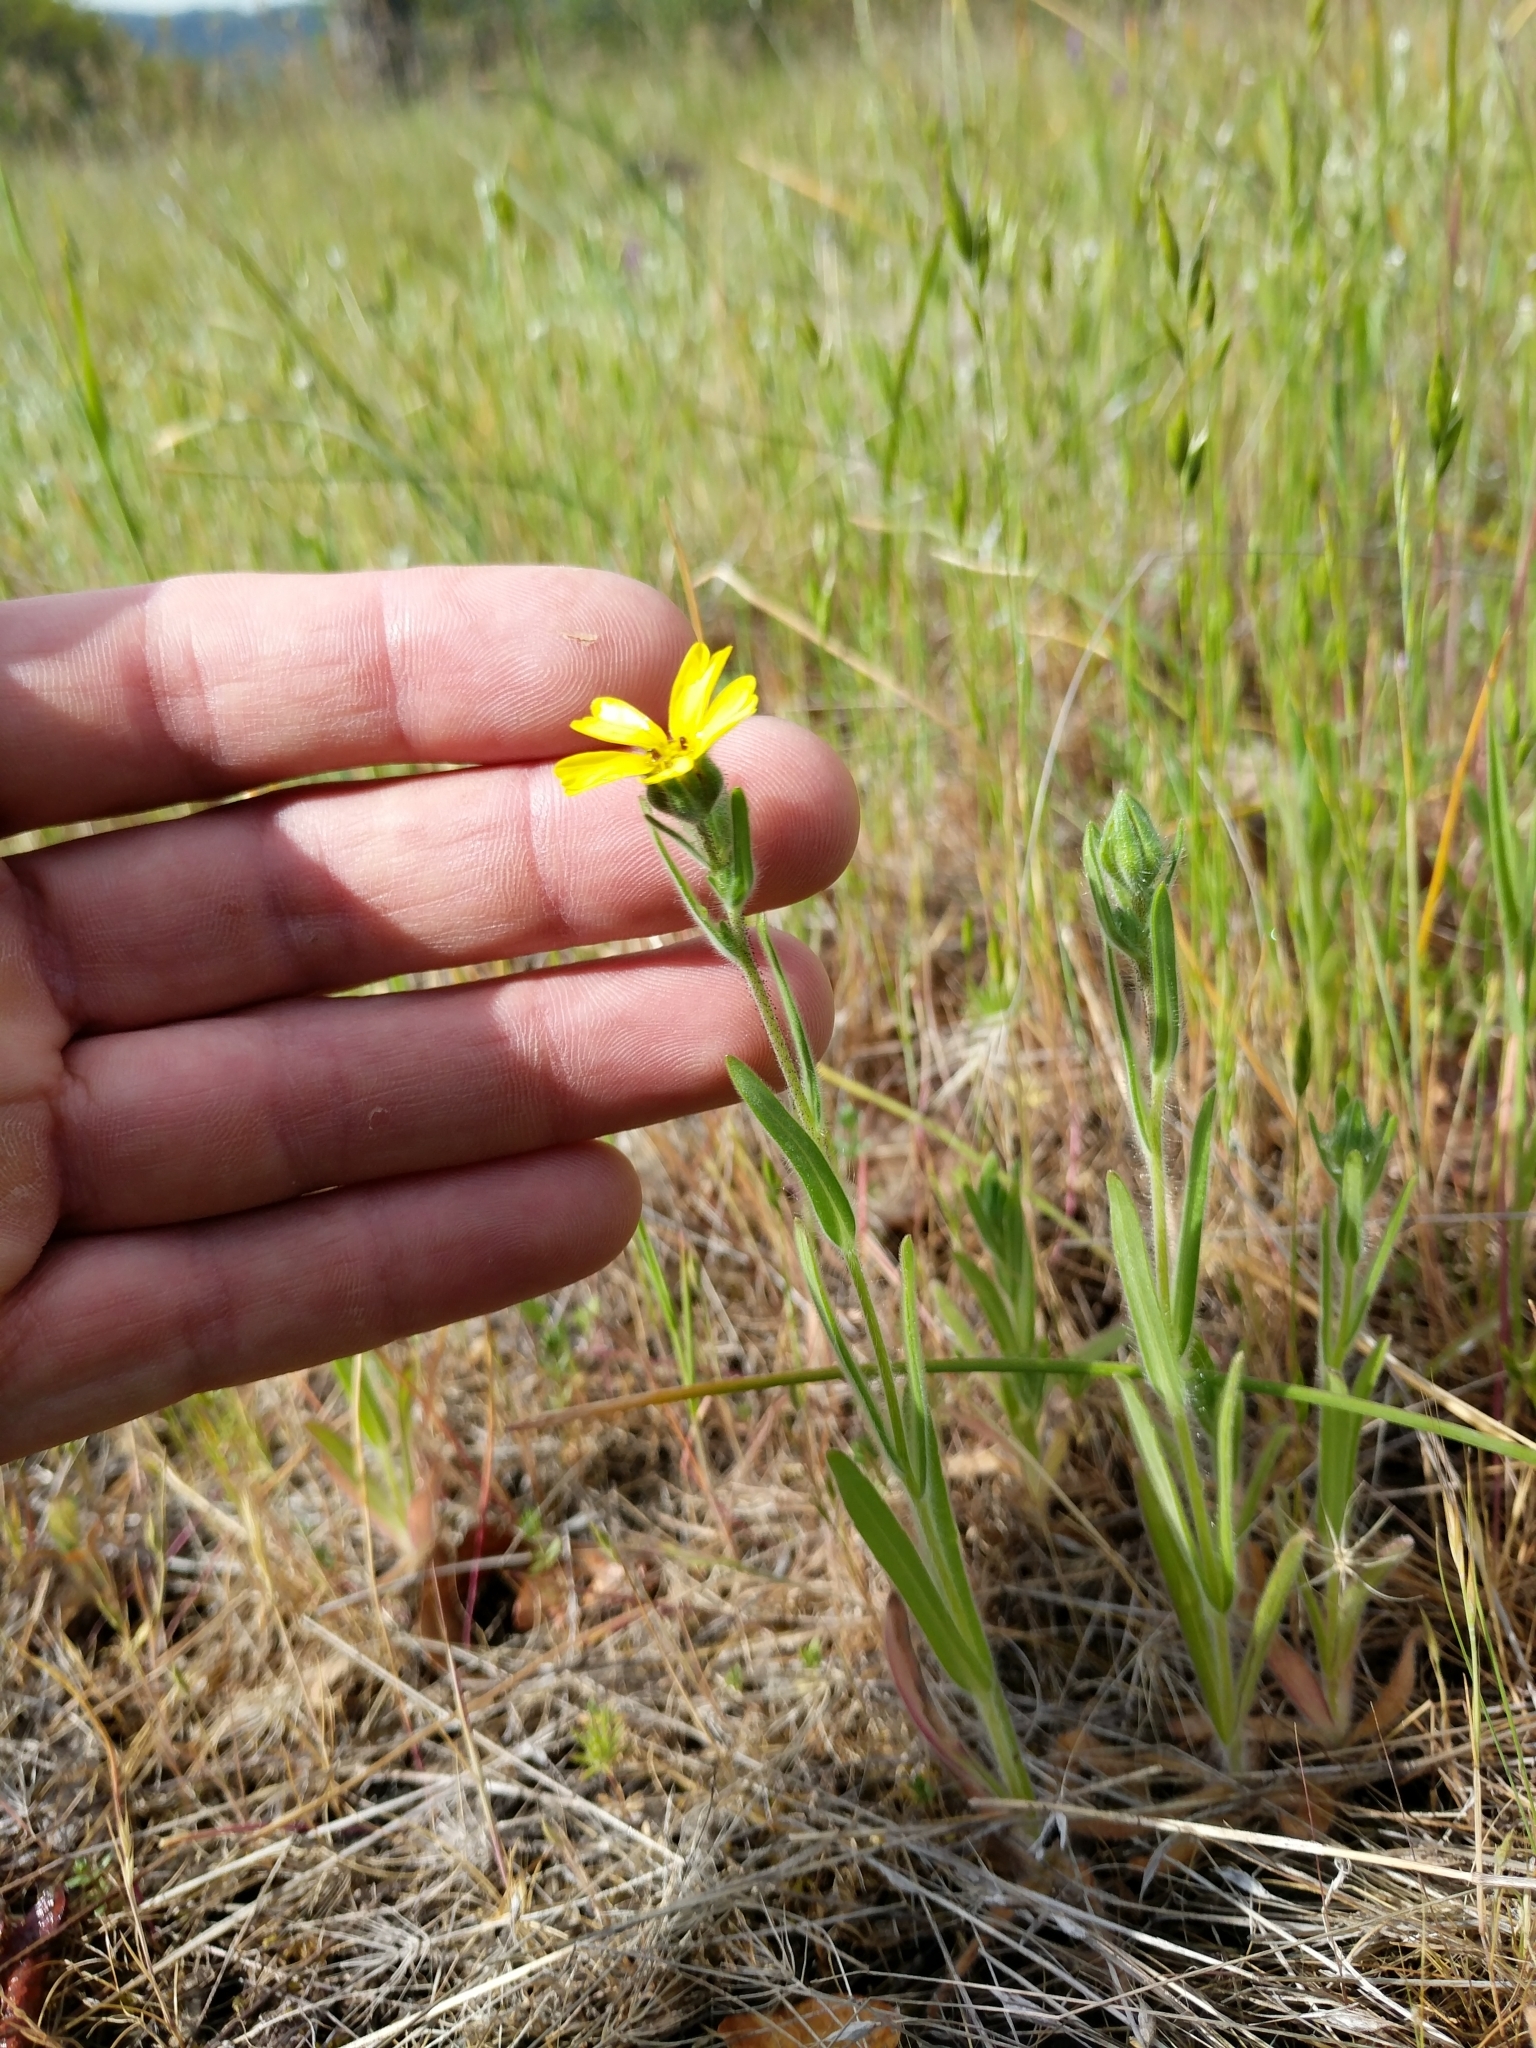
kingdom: Plantae
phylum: Tracheophyta
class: Magnoliopsida
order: Asterales
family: Asteraceae
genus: Madia
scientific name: Madia citriodora
